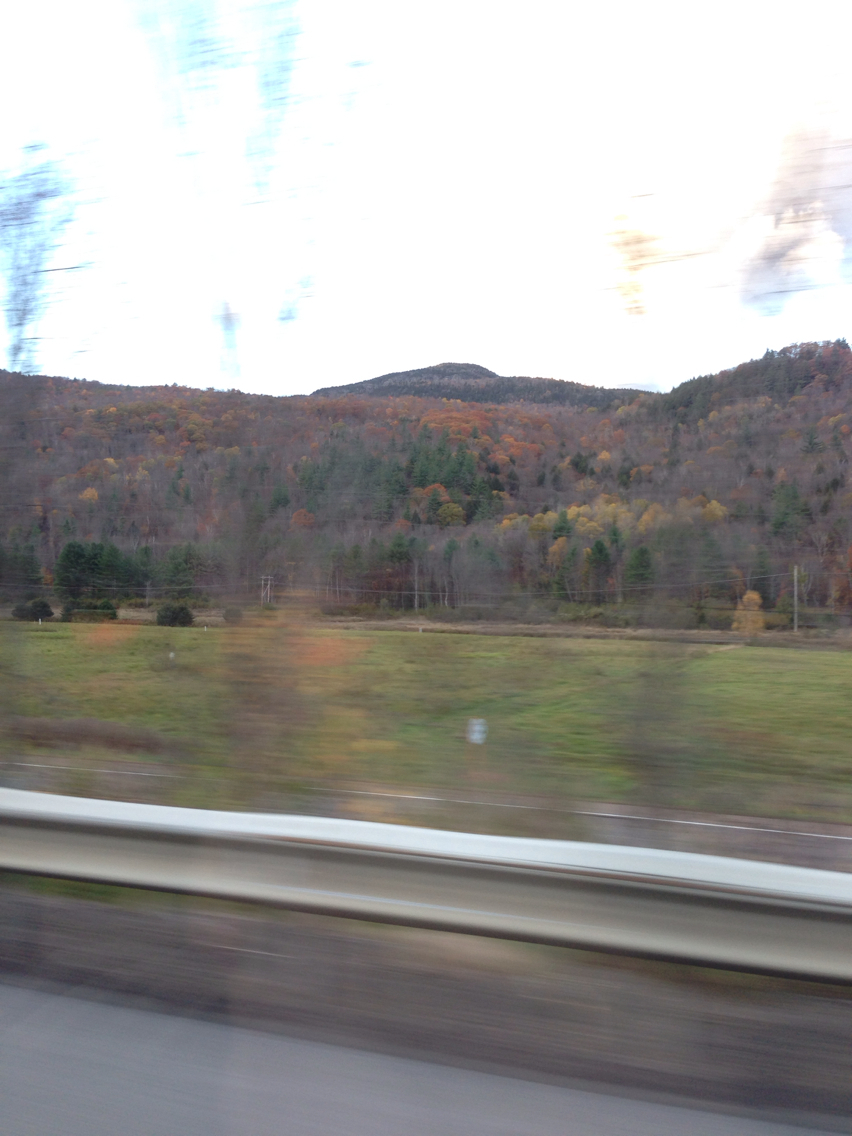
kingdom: Plantae
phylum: Tracheophyta
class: Magnoliopsida
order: Fagales
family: Fagaceae
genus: Quercus
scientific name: Quercus rubra
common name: Red oak
